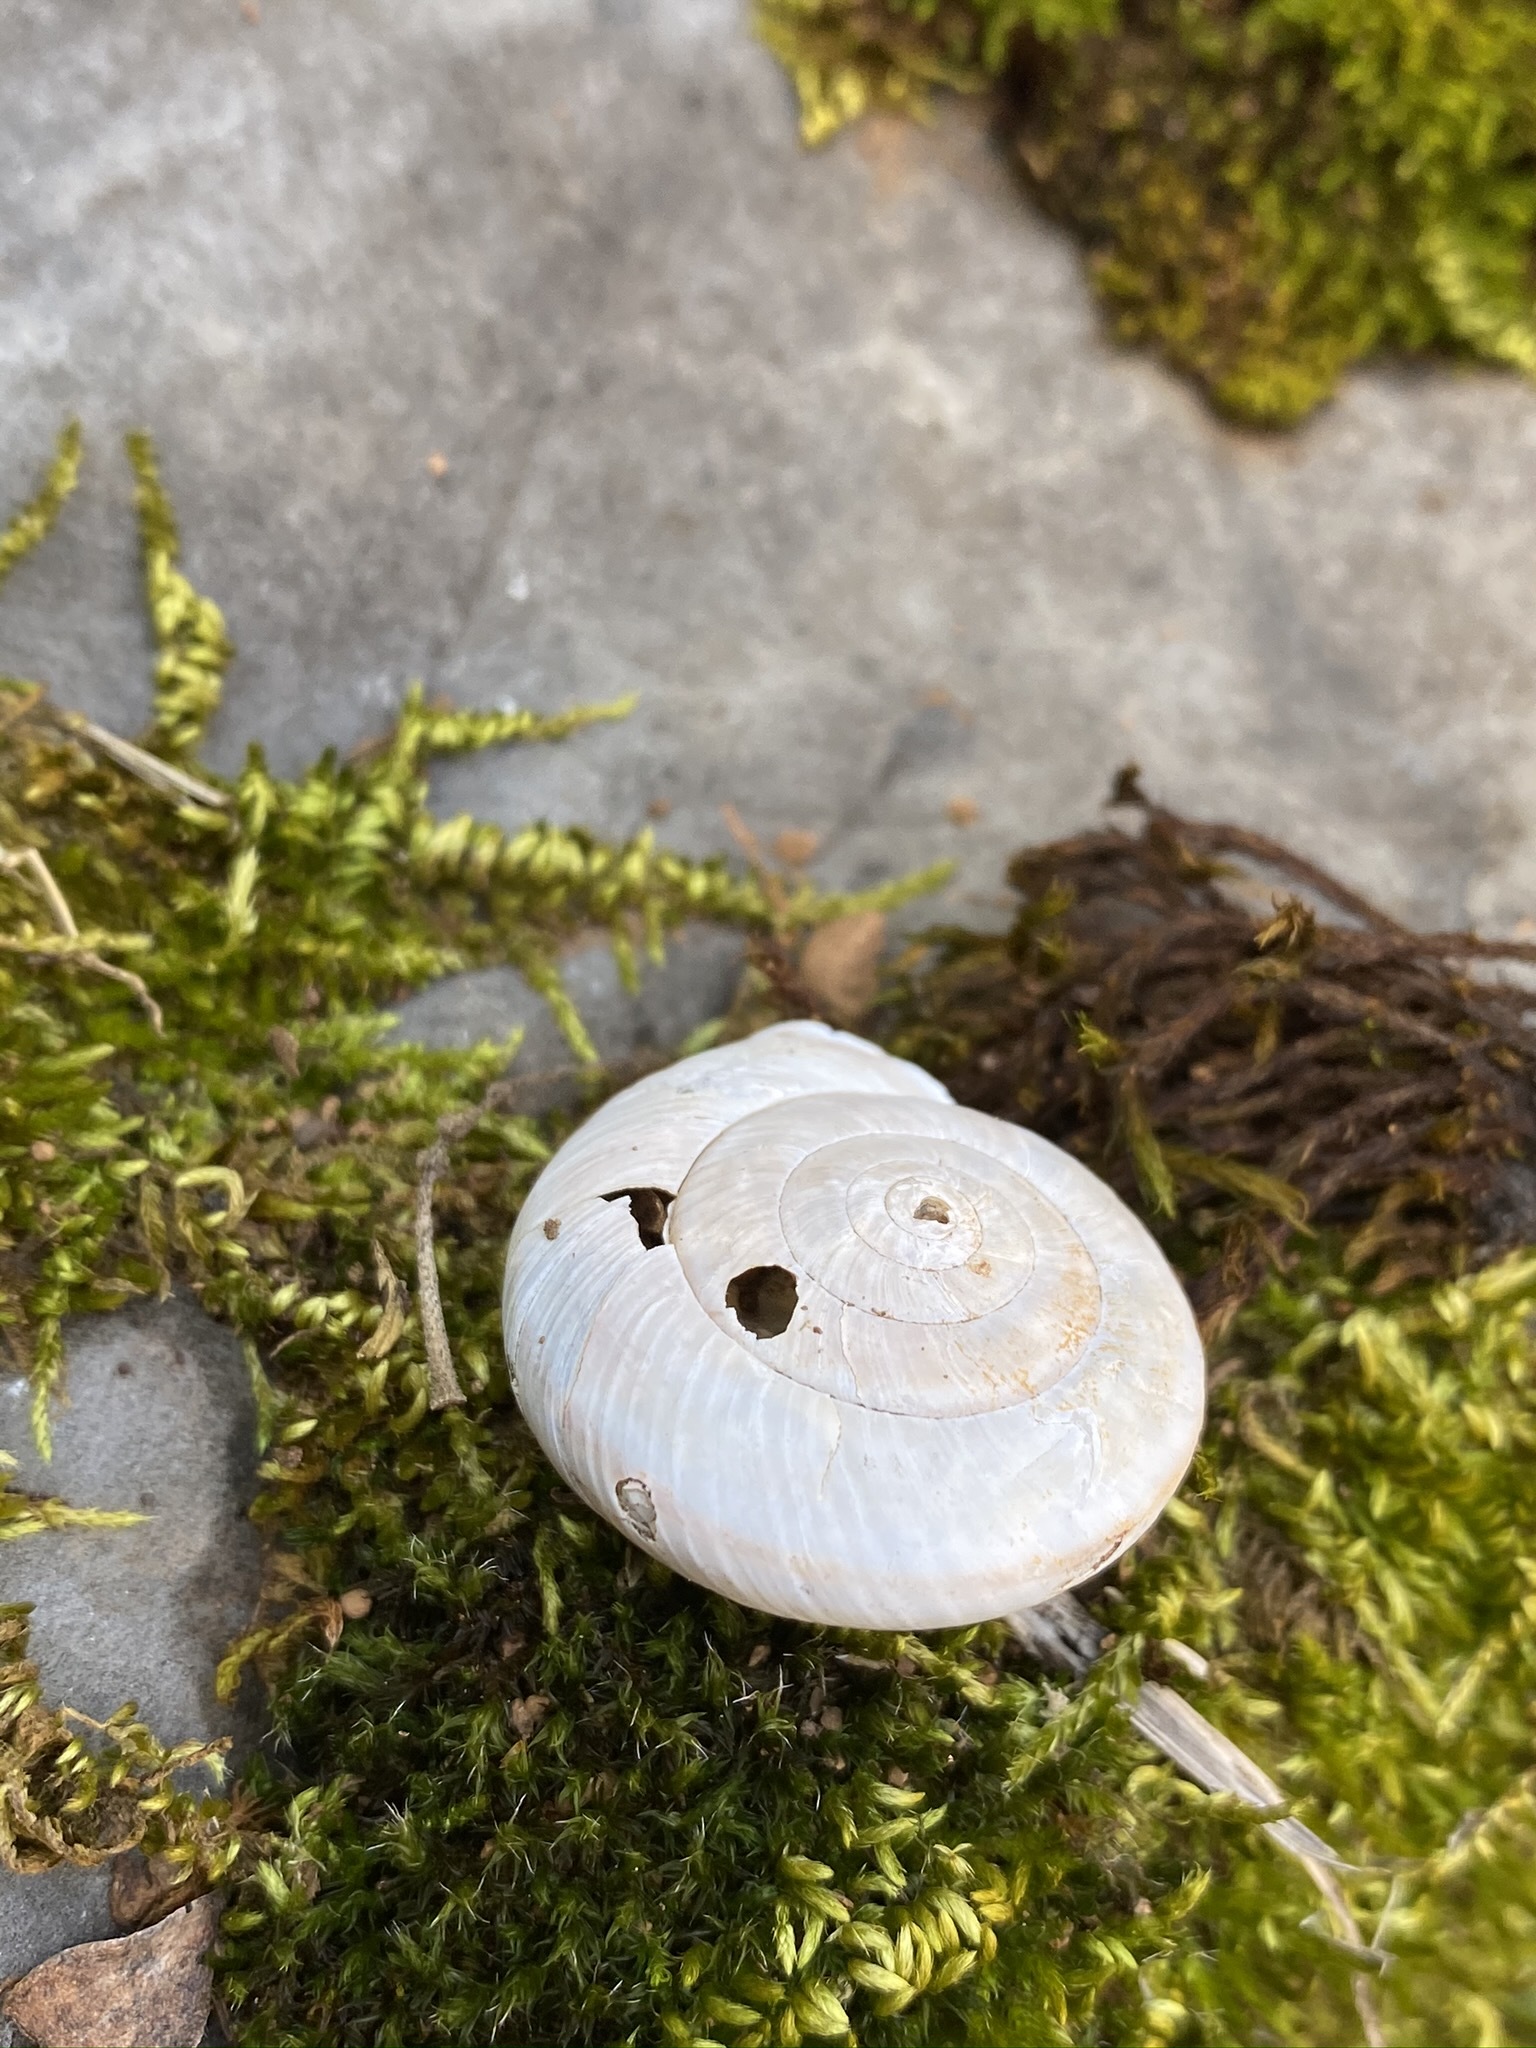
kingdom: Animalia
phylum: Mollusca
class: Gastropoda
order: Stylommatophora
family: Xanthonychidae
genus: Monadenia
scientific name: Monadenia troglodytes
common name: Shasta sideband
